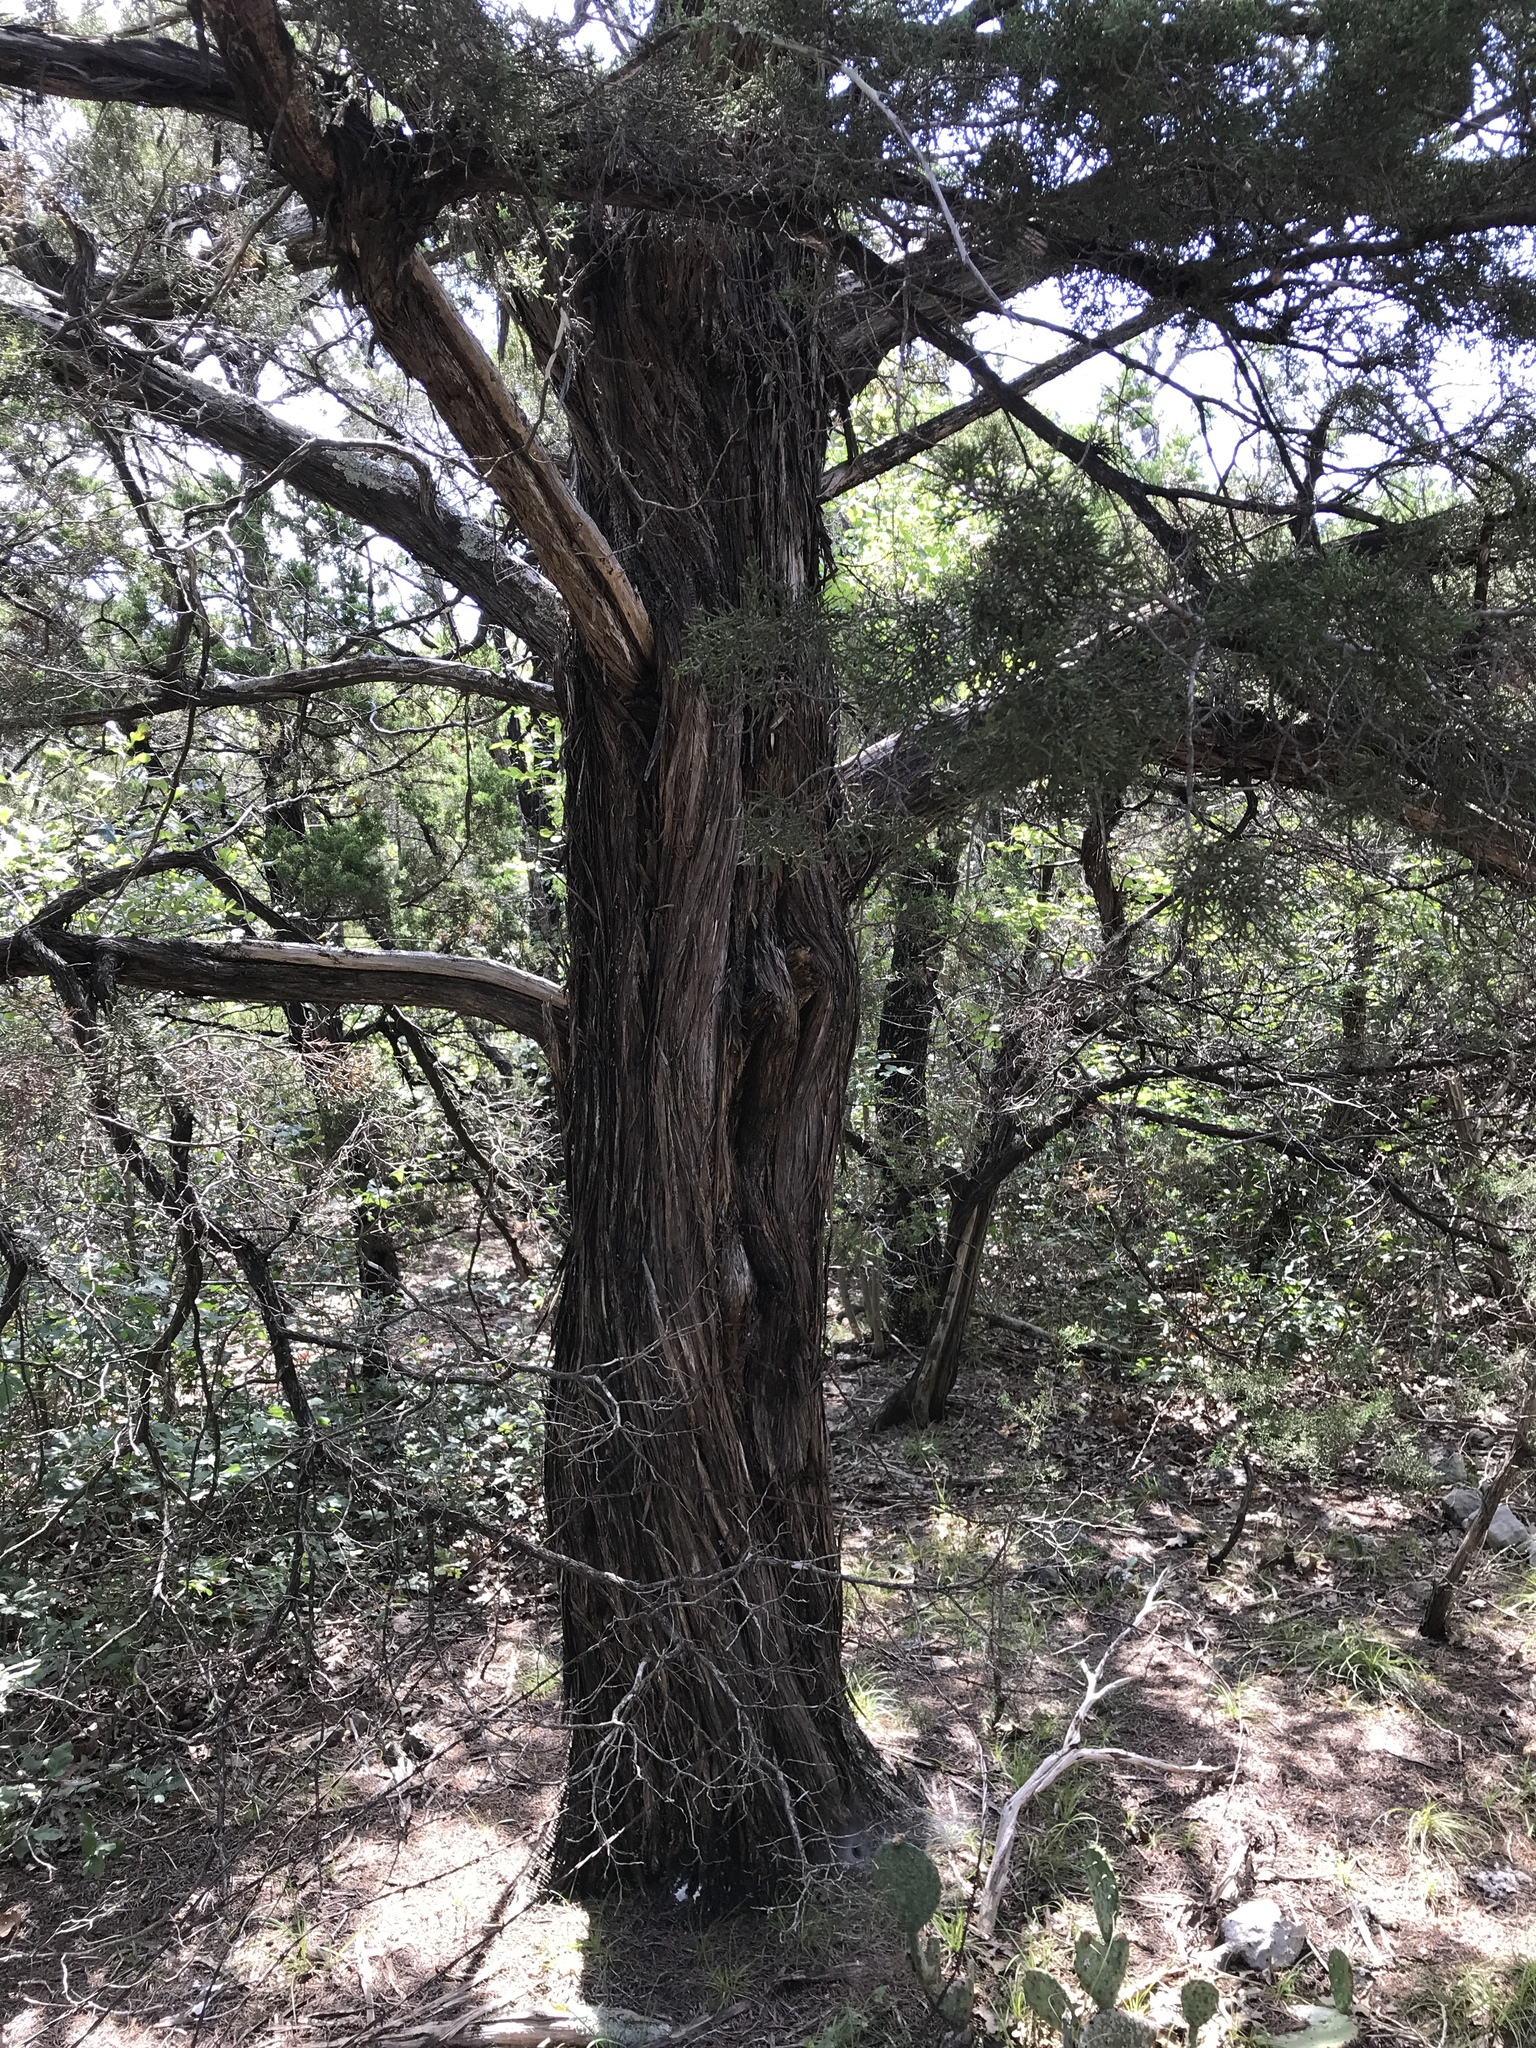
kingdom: Plantae
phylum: Tracheophyta
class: Pinopsida
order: Pinales
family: Cupressaceae
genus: Juniperus
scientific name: Juniperus ashei
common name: Mexican juniper
